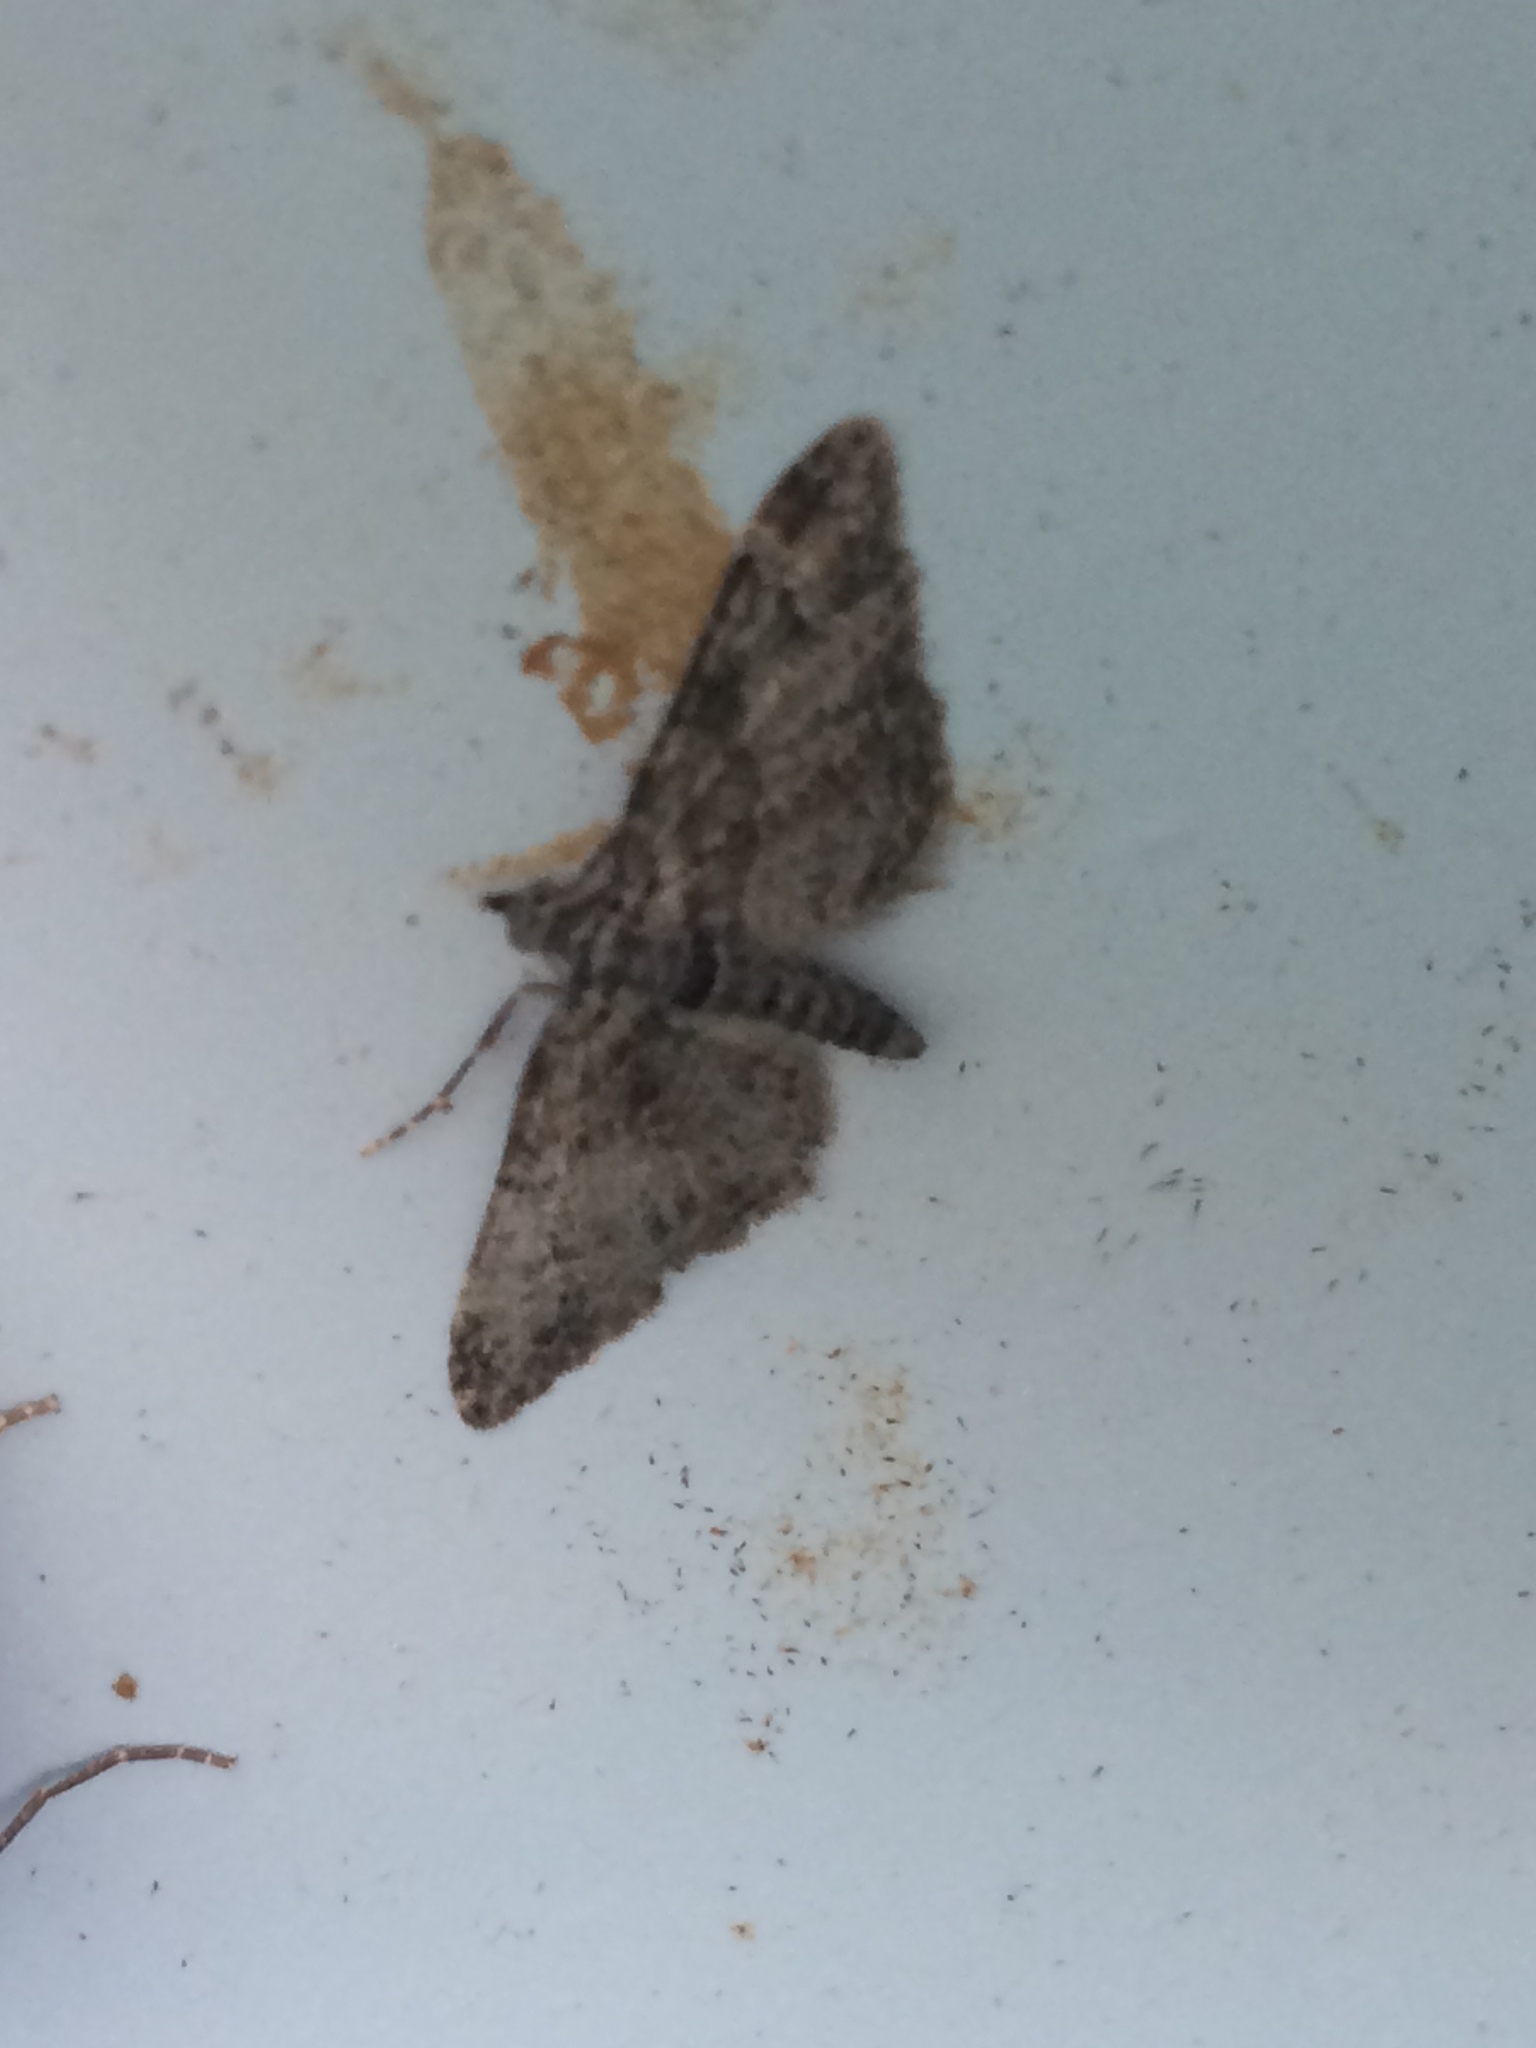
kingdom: Animalia
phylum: Arthropoda
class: Insecta
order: Lepidoptera
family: Geometridae
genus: Gymnoscelis
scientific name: Gymnoscelis rufifasciata
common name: Double-striped pug
